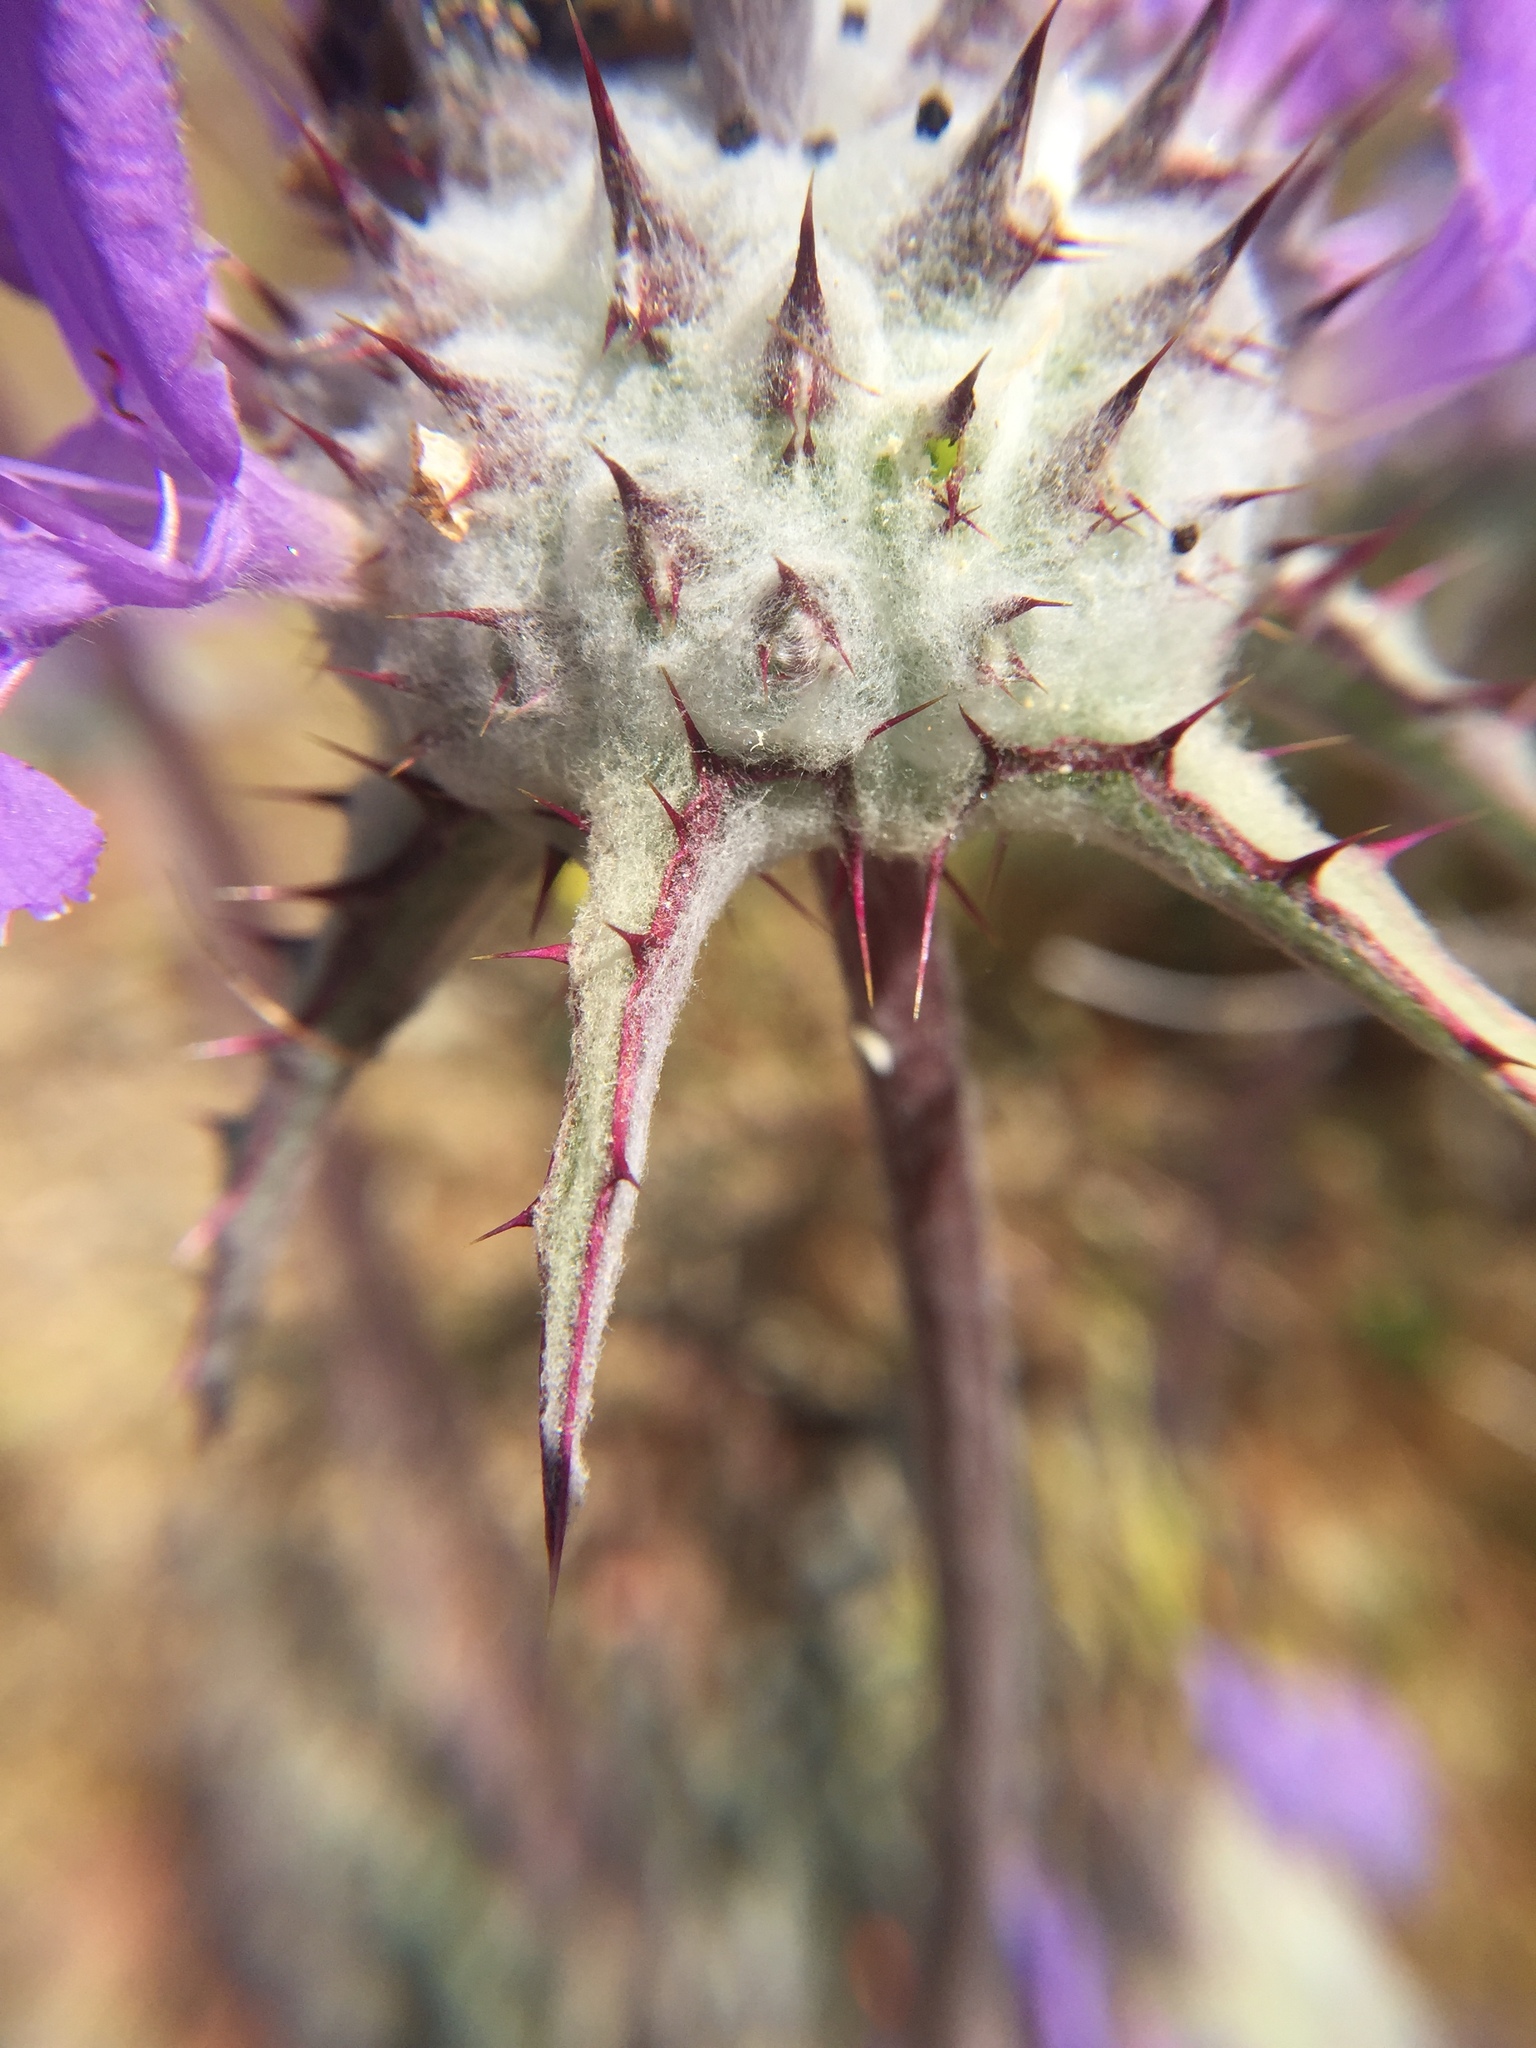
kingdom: Plantae
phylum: Tracheophyta
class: Magnoliopsida
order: Lamiales
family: Lamiaceae
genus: Salvia
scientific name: Salvia carduacea
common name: Thistle sage
